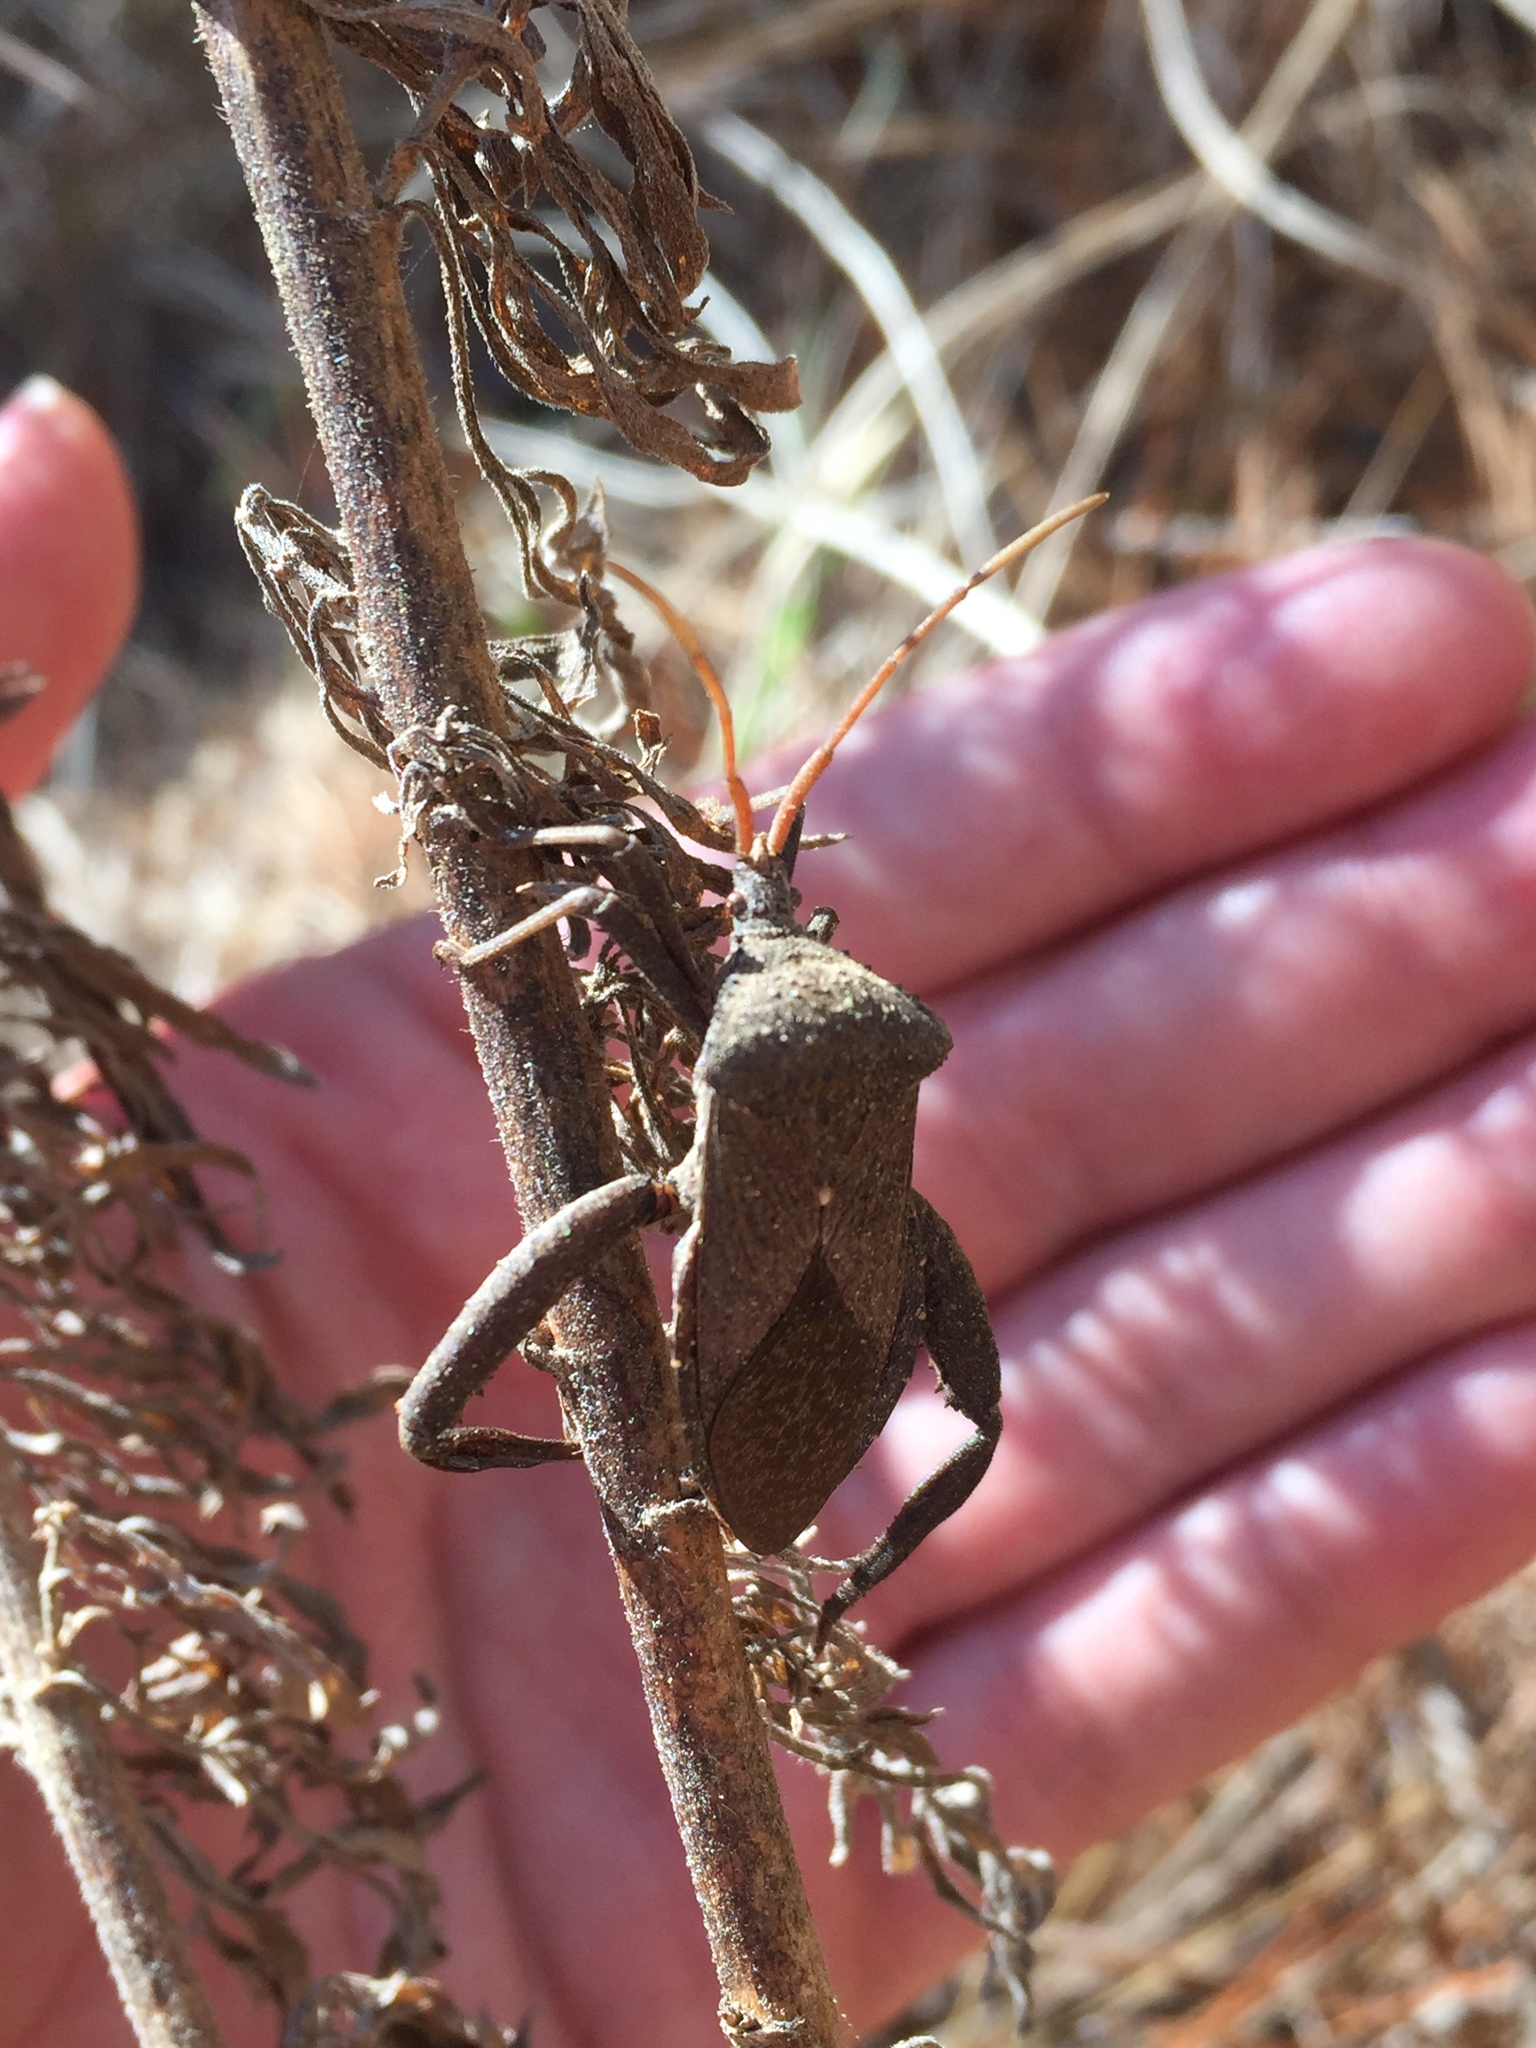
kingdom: Animalia
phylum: Arthropoda
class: Insecta
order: Hemiptera
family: Coreidae
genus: Acanthocephala
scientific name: Acanthocephala femorata
